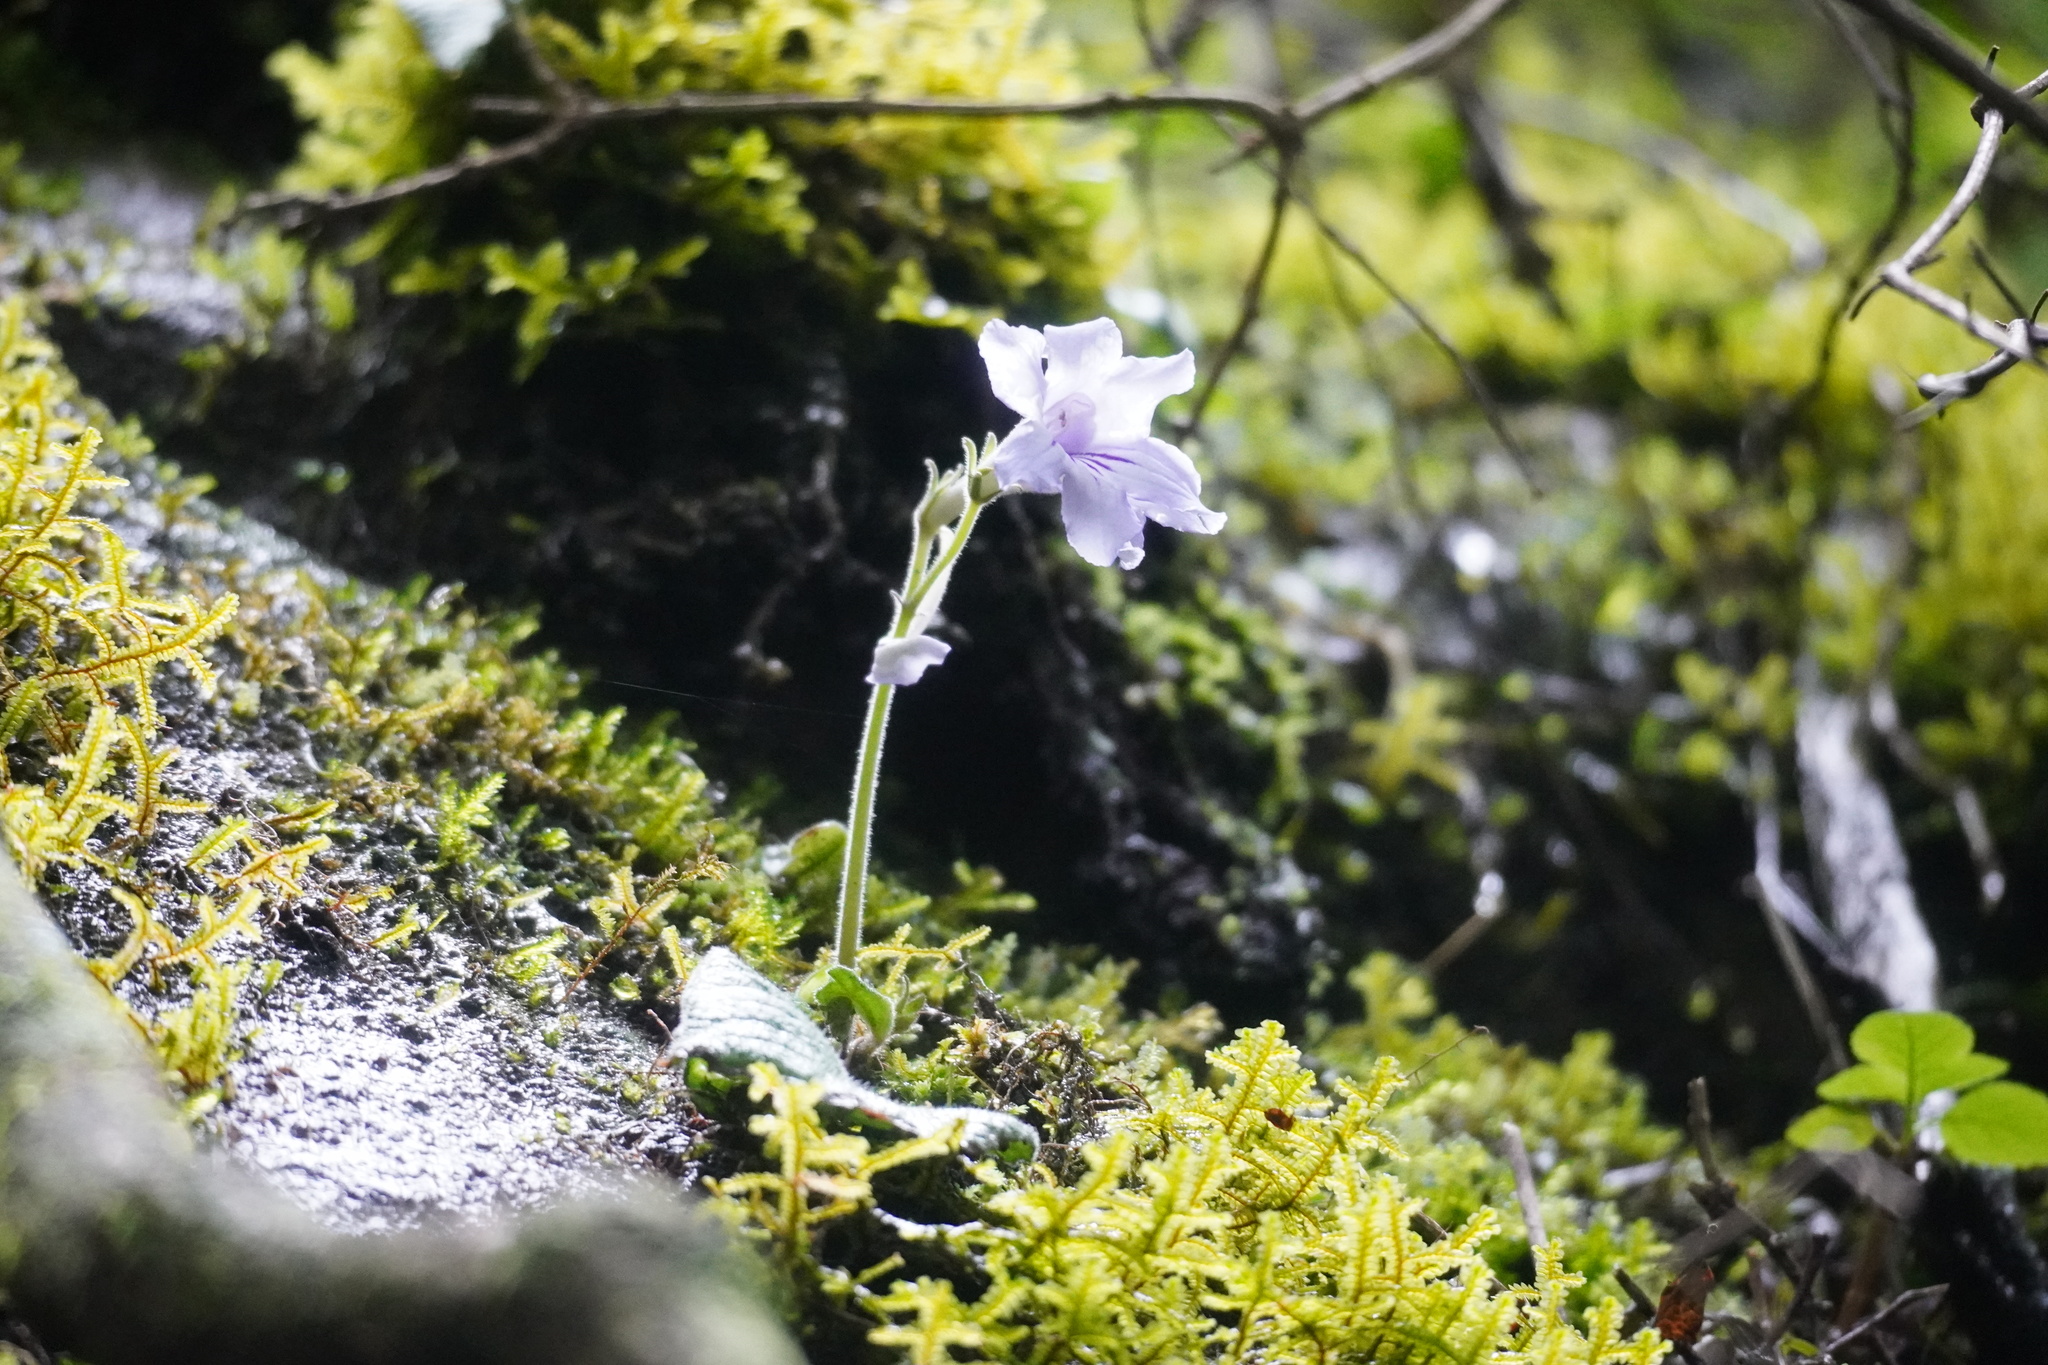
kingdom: Plantae
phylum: Tracheophyta
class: Magnoliopsida
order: Lamiales
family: Gesneriaceae
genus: Streptocarpus
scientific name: Streptocarpus rexii
